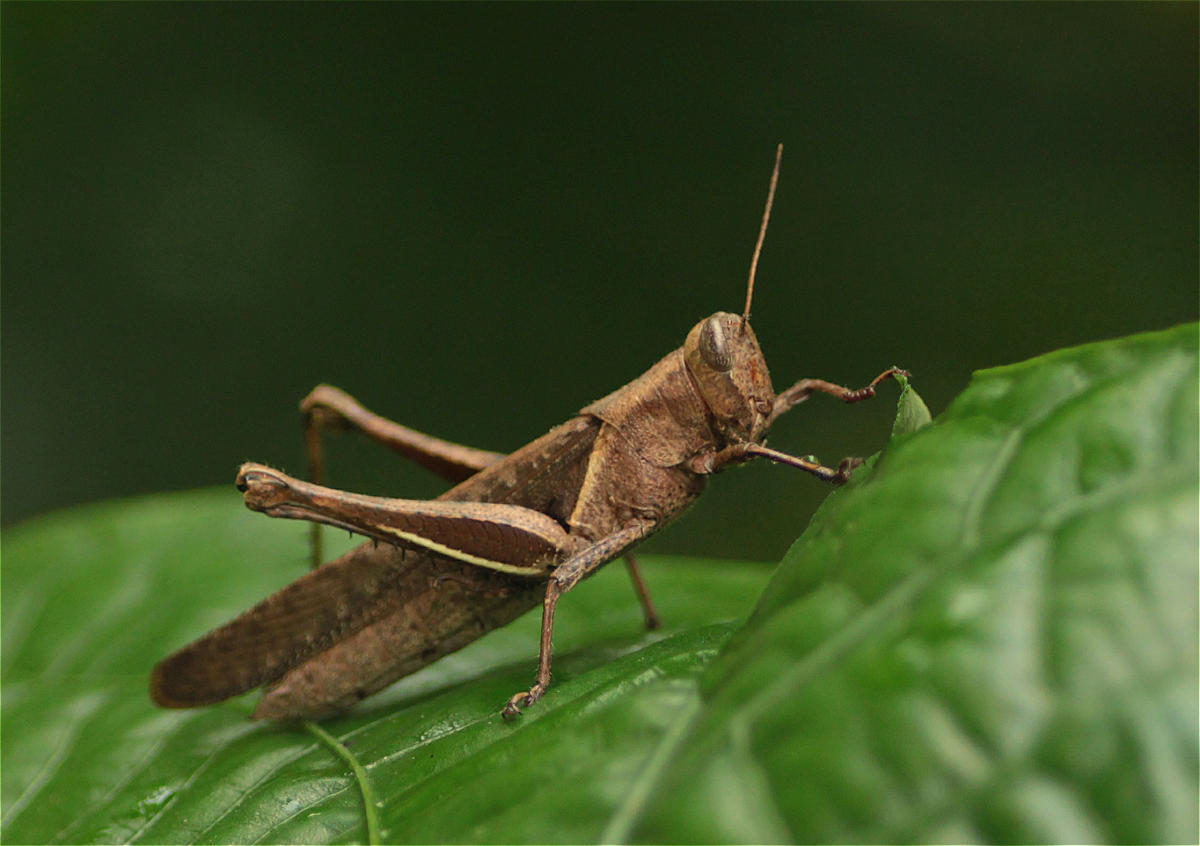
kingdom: Animalia
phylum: Arthropoda
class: Insecta
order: Orthoptera
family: Acrididae
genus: Abracris
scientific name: Abracris flavolineata
